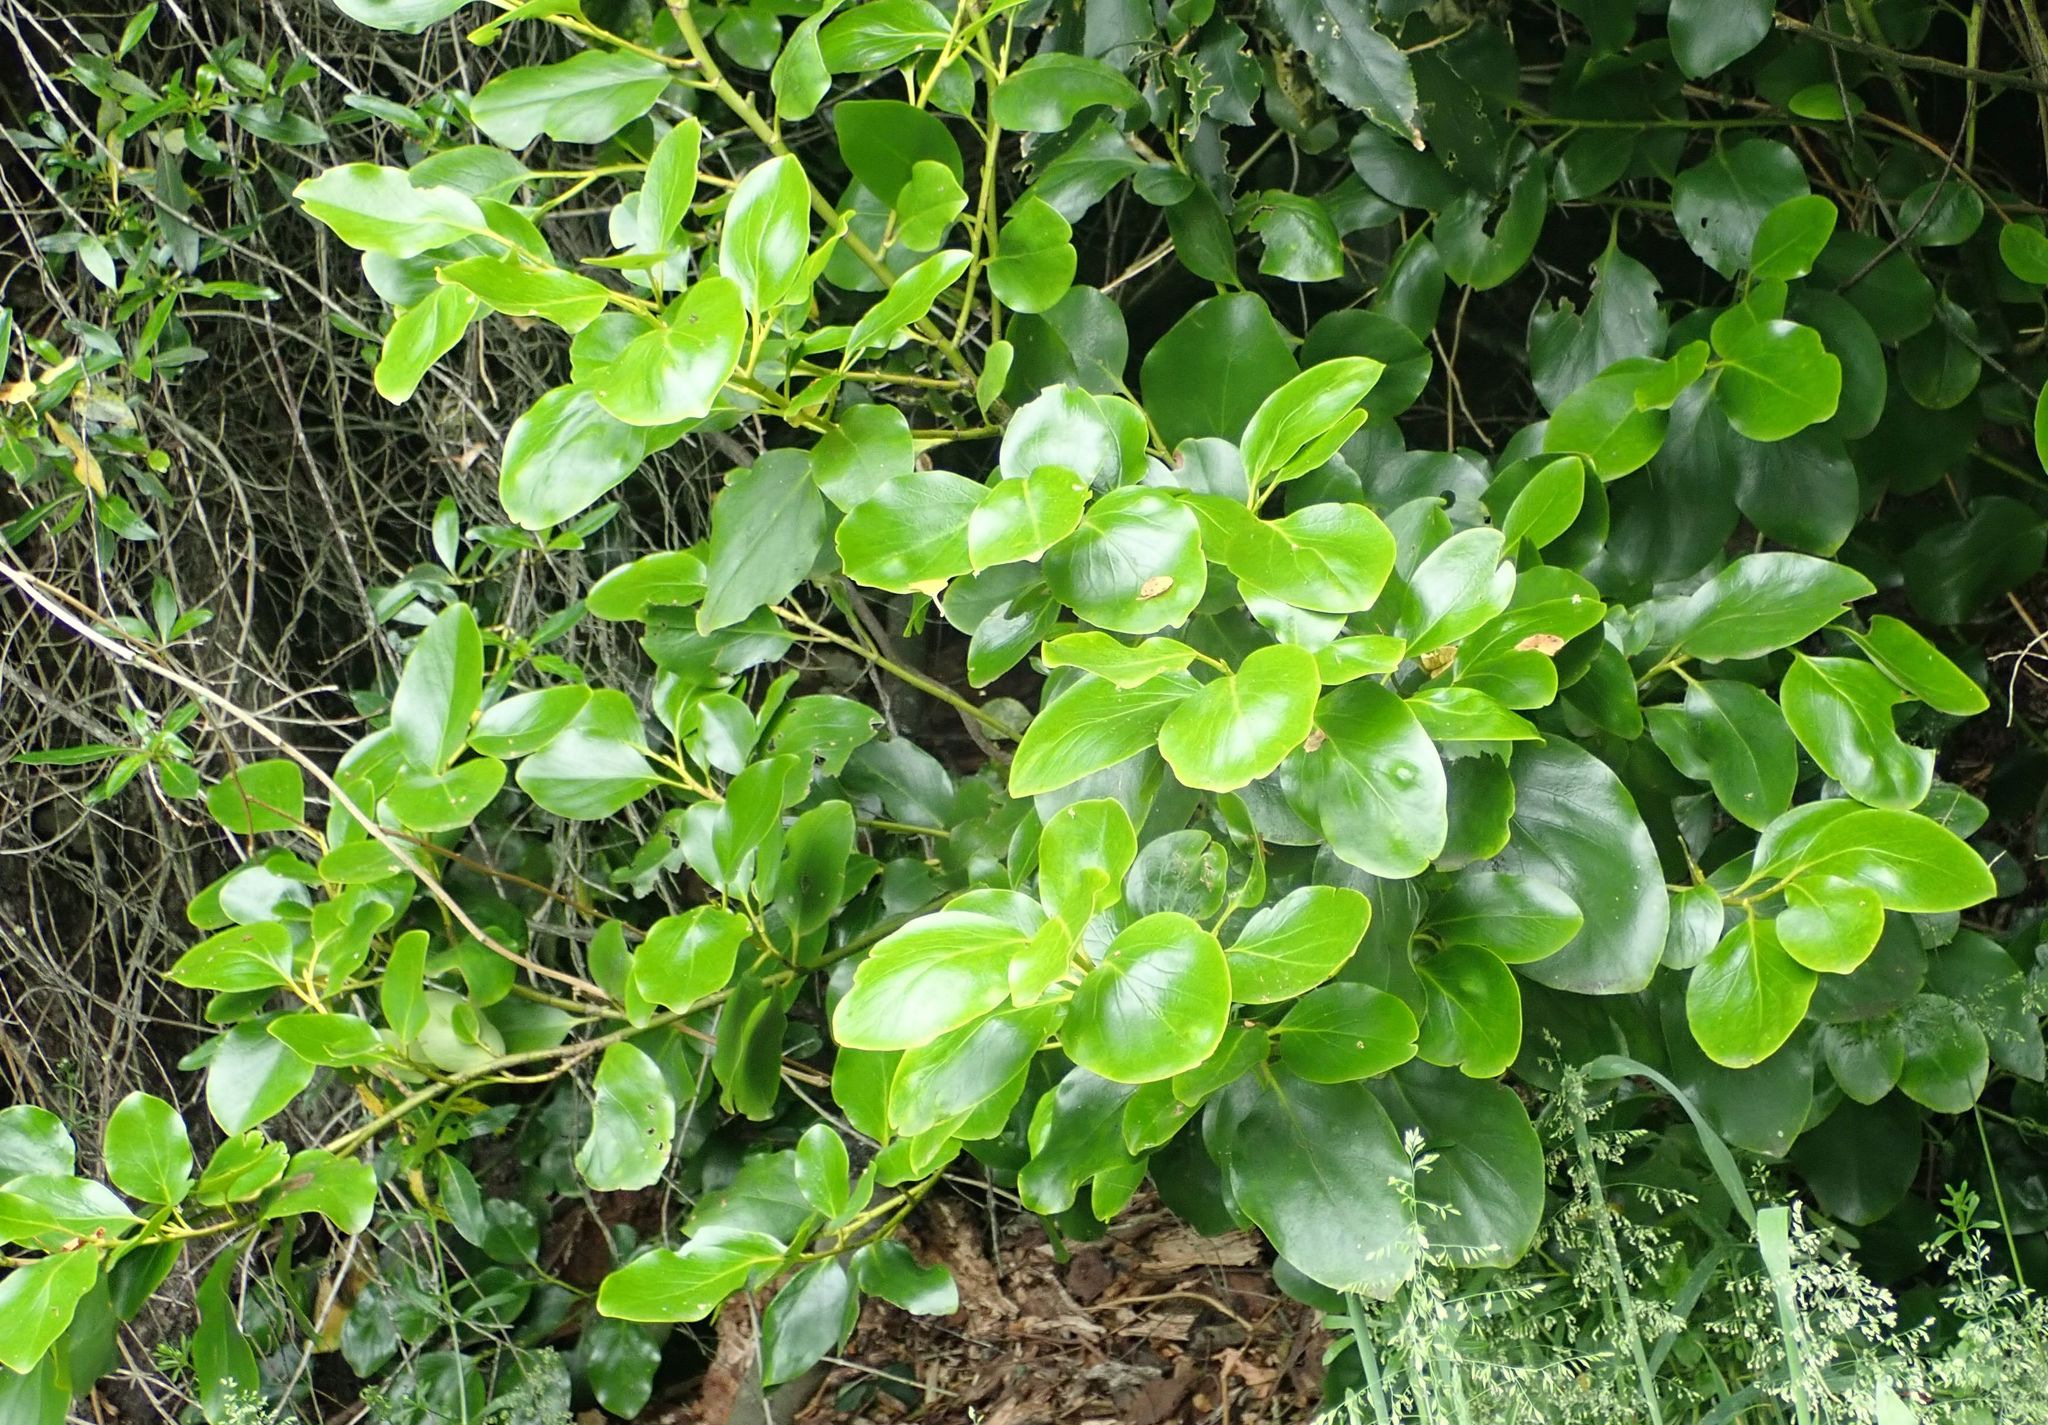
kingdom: Plantae
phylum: Tracheophyta
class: Magnoliopsida
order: Apiales
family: Griseliniaceae
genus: Griselinia
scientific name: Griselinia littoralis
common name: New zealand broadleaf
